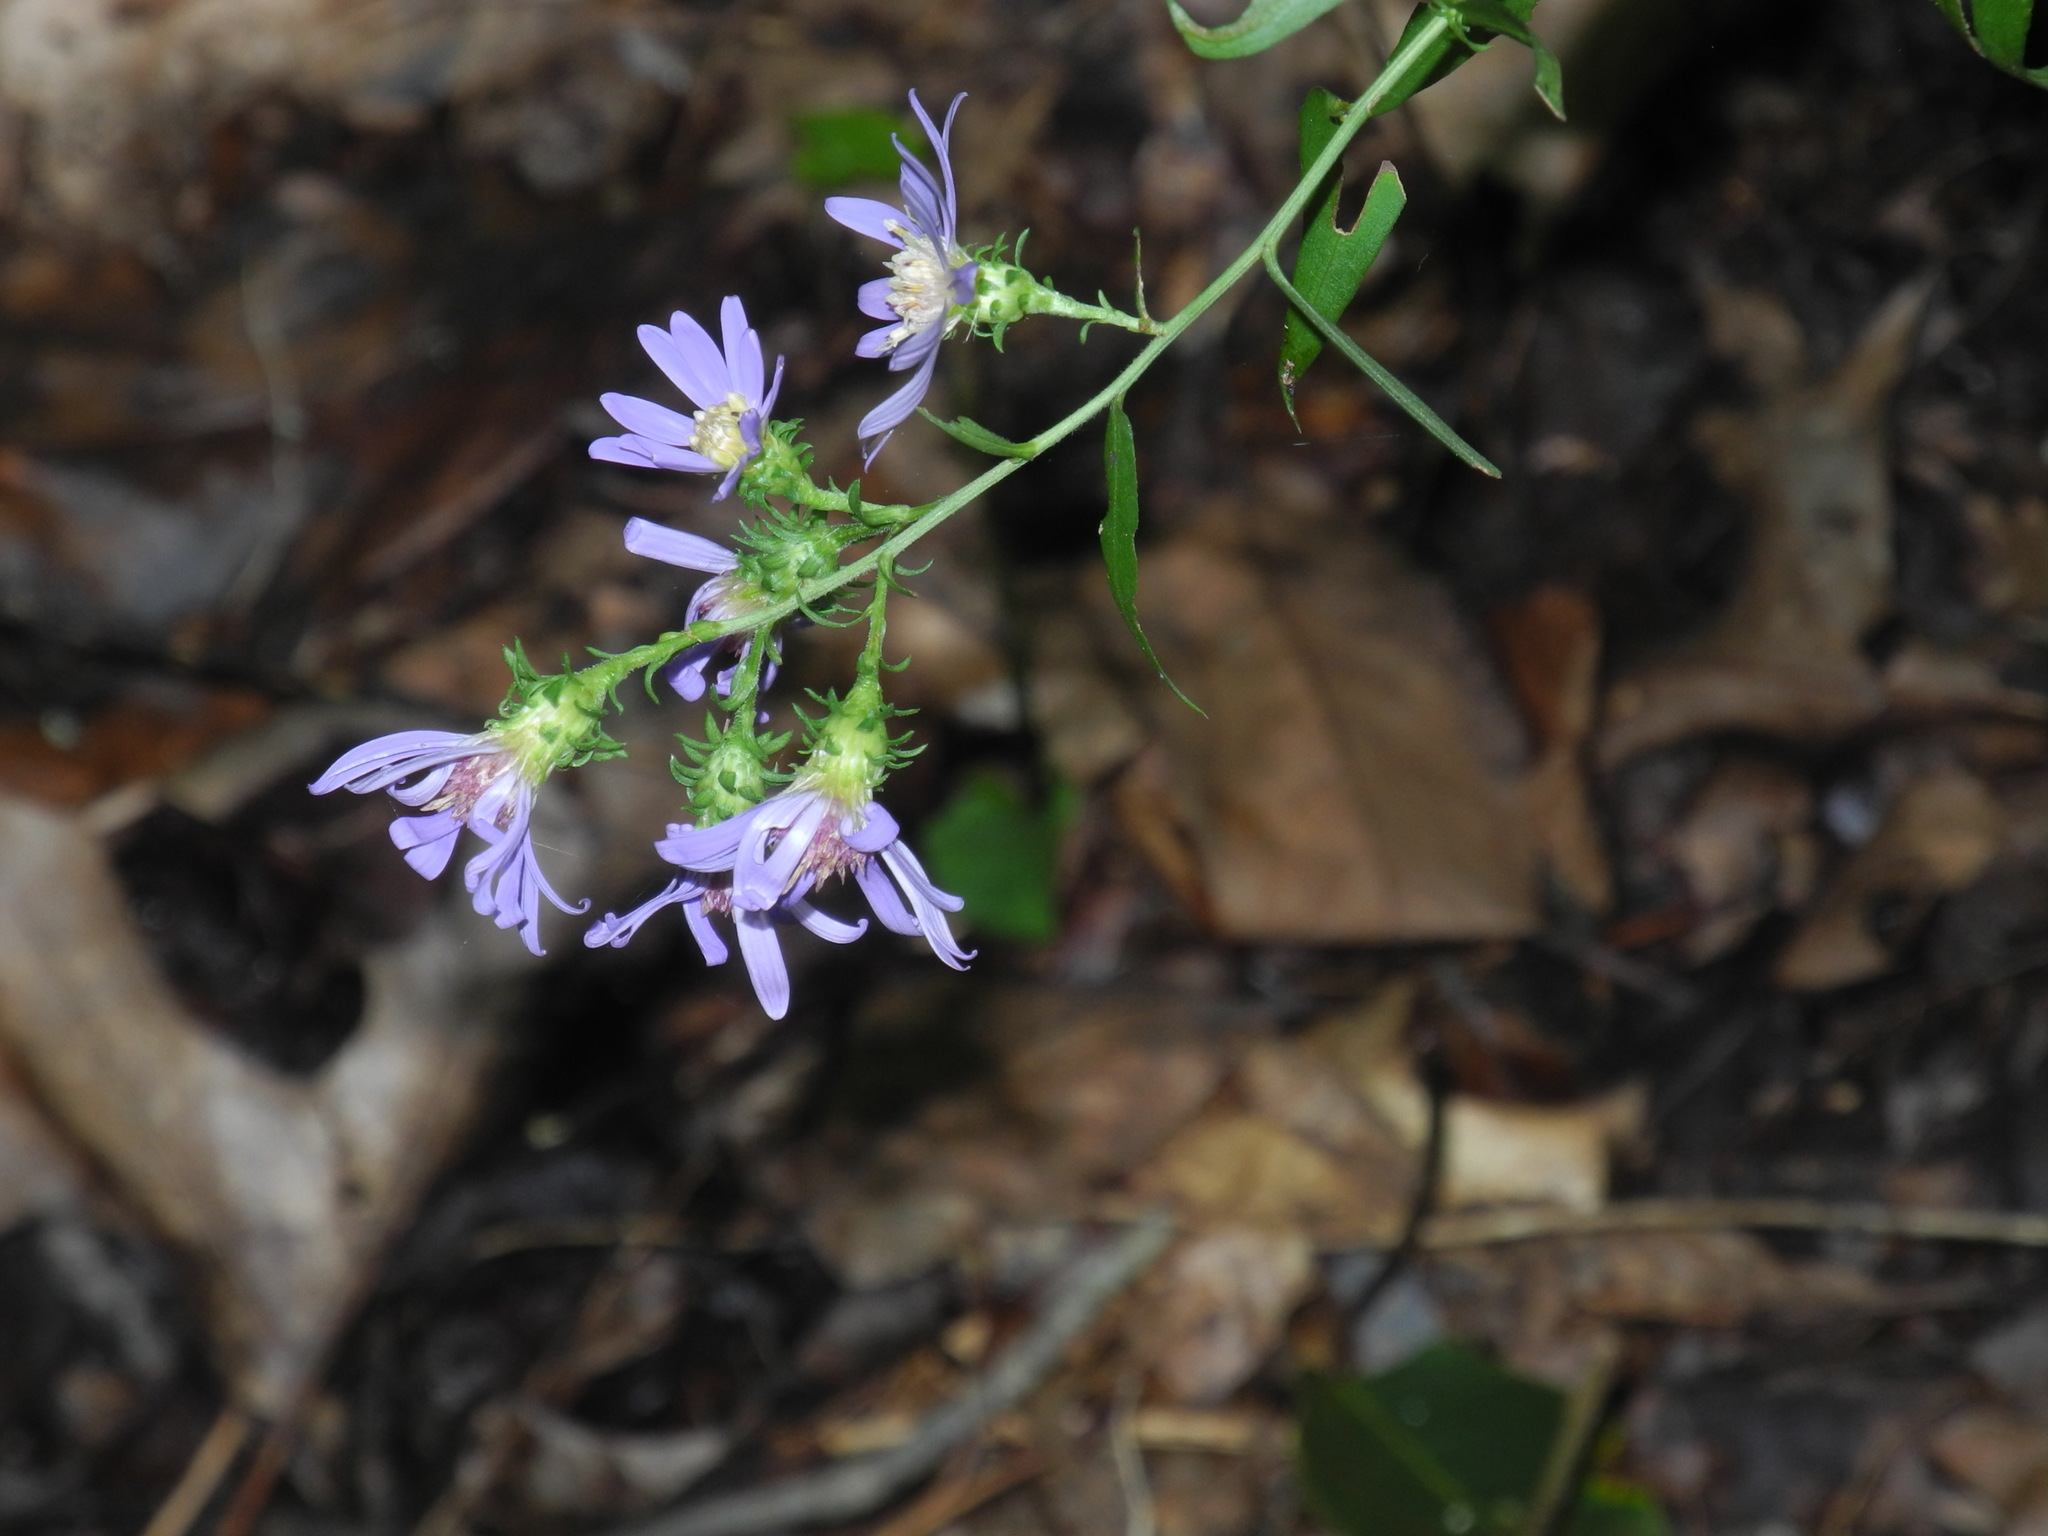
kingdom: Plantae
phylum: Tracheophyta
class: Magnoliopsida
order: Asterales
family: Asteraceae
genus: Symphyotrichum
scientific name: Symphyotrichum retroflexum
